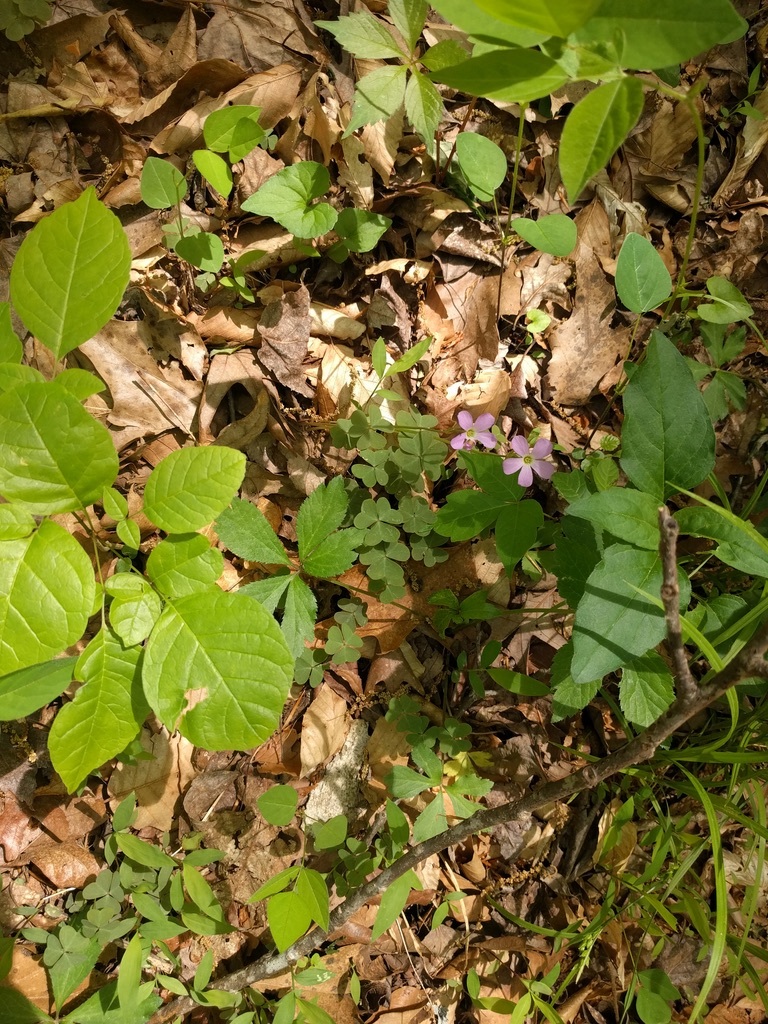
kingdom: Plantae
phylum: Tracheophyta
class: Magnoliopsida
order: Oxalidales
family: Oxalidaceae
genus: Oxalis
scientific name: Oxalis violacea
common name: Violet wood-sorrel
